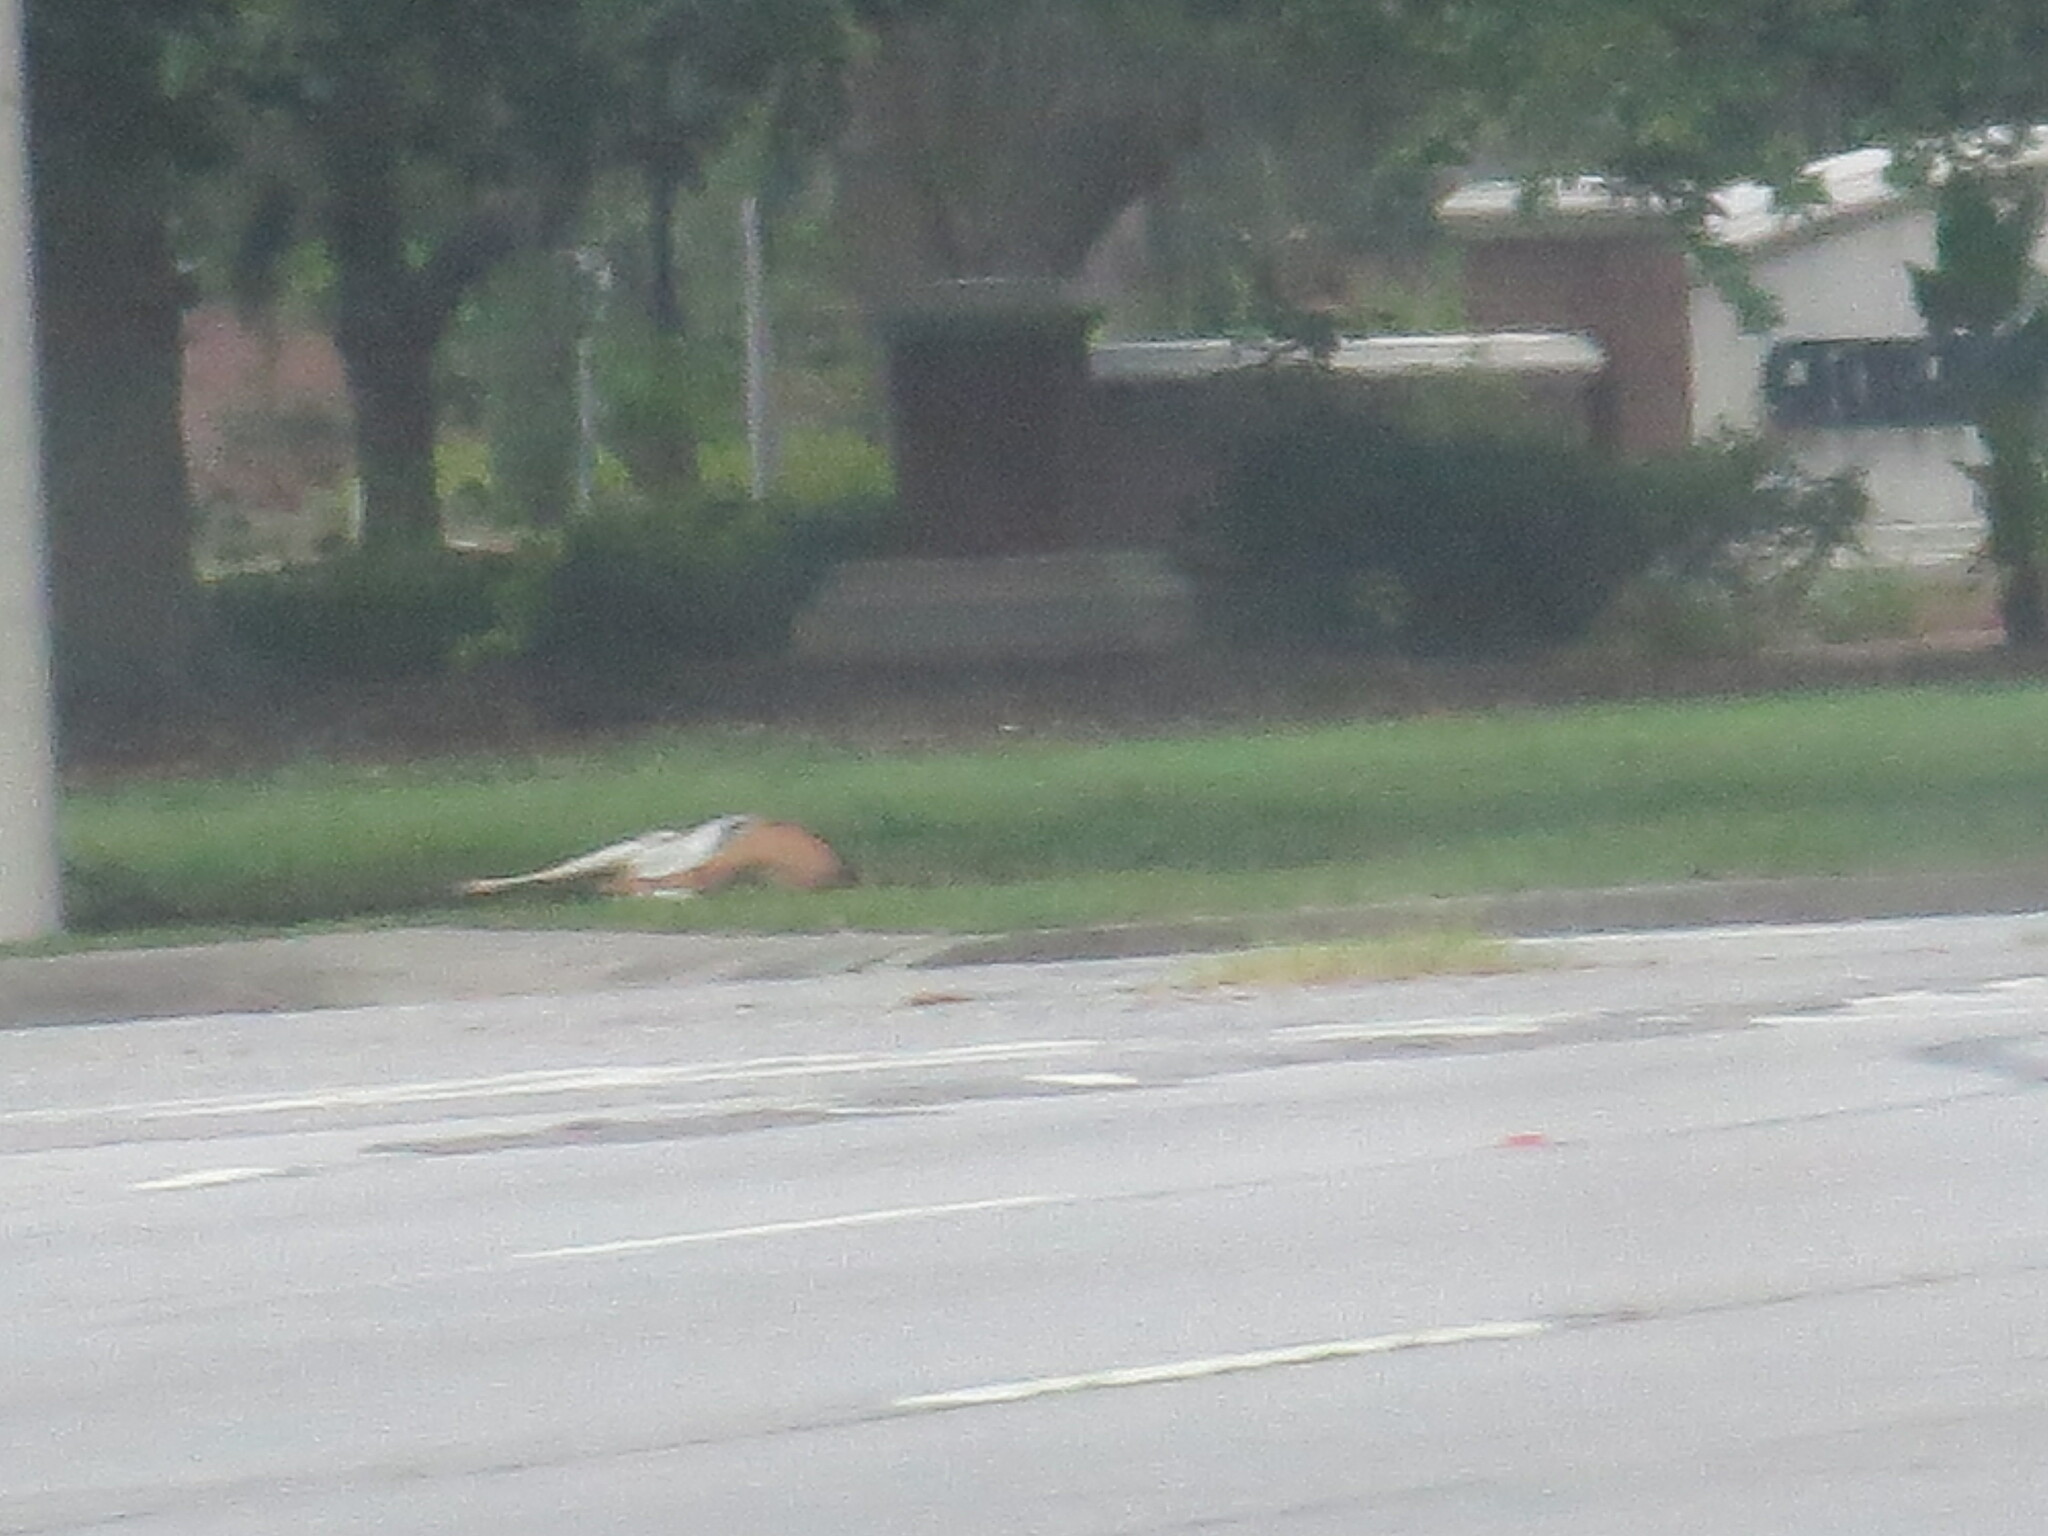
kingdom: Animalia
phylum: Chordata
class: Mammalia
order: Artiodactyla
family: Cervidae
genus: Odocoileus
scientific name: Odocoileus virginianus
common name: White-tailed deer
